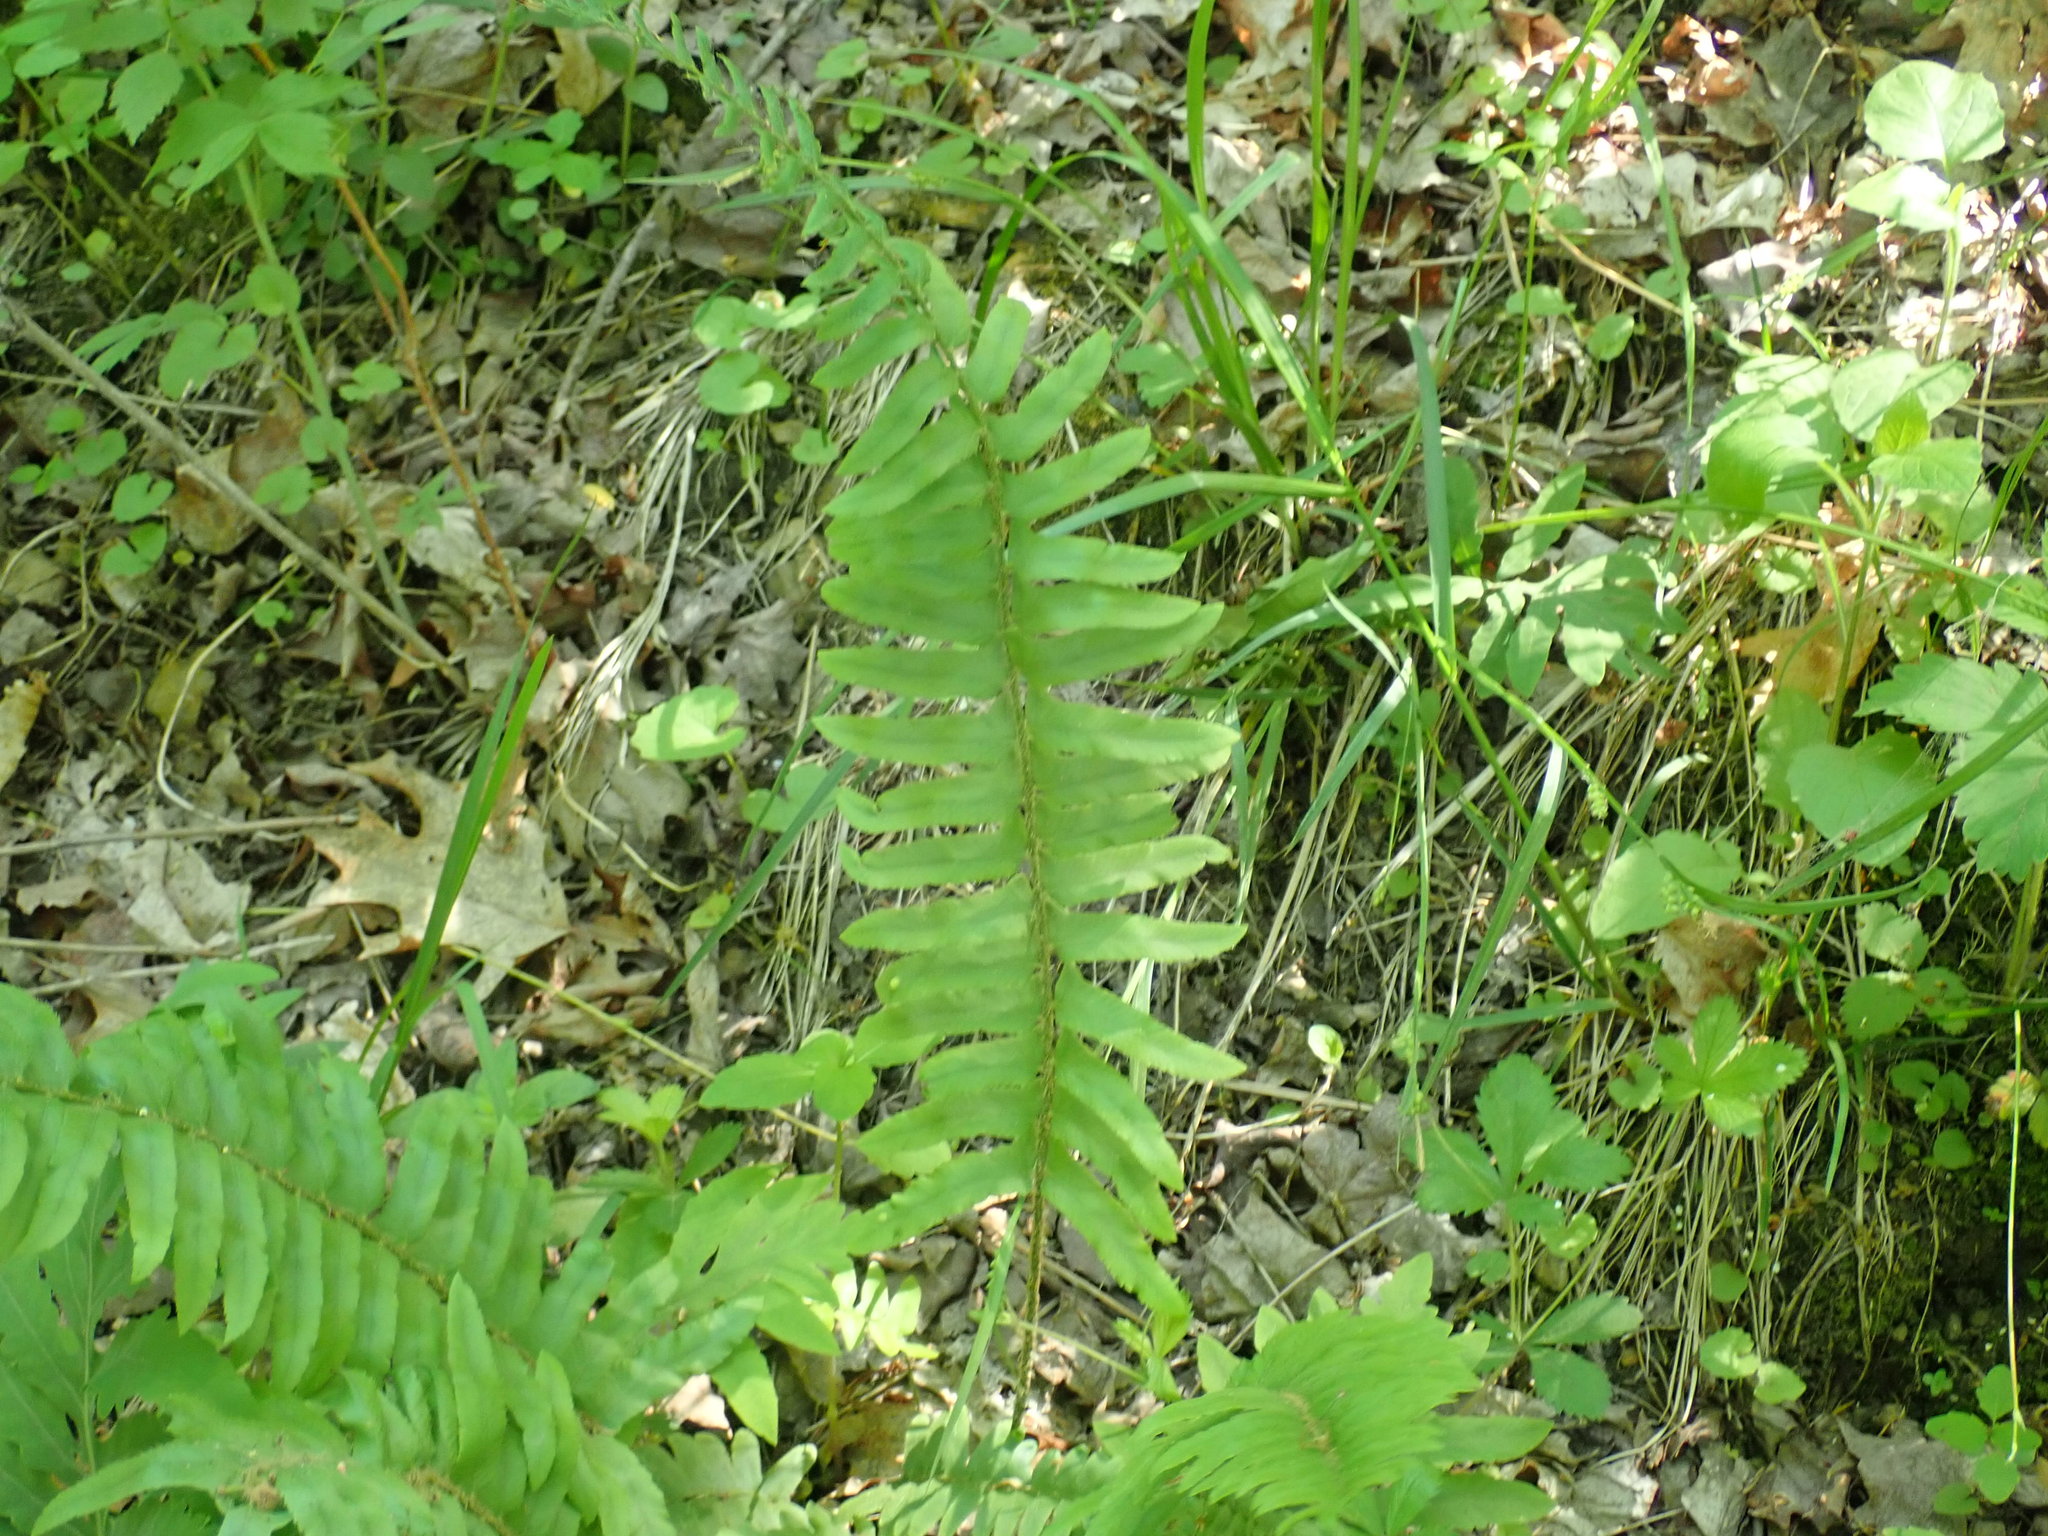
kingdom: Plantae
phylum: Tracheophyta
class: Polypodiopsida
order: Polypodiales
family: Dryopteridaceae
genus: Polystichum
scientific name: Polystichum acrostichoides
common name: Christmas fern
